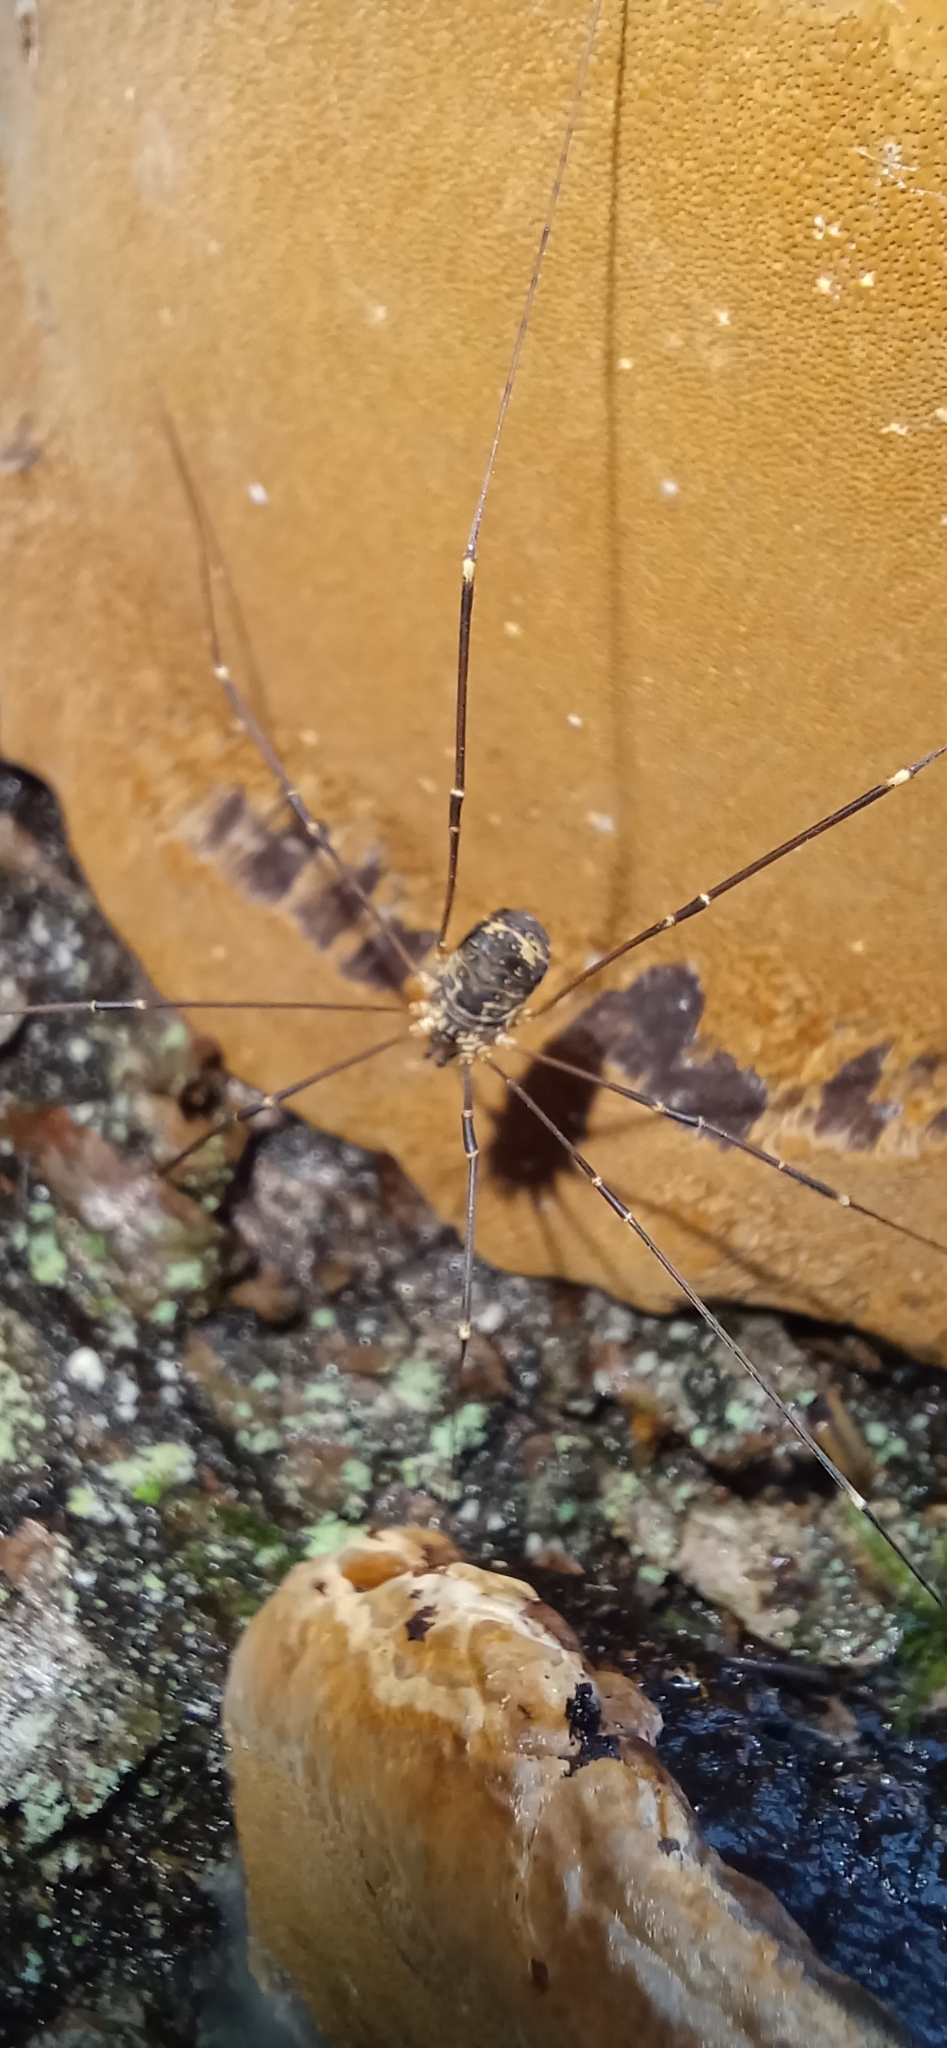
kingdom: Animalia
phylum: Arthropoda
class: Arachnida
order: Opiliones
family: Sclerosomatidae
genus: Leiobunum
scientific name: Leiobunum gracile
